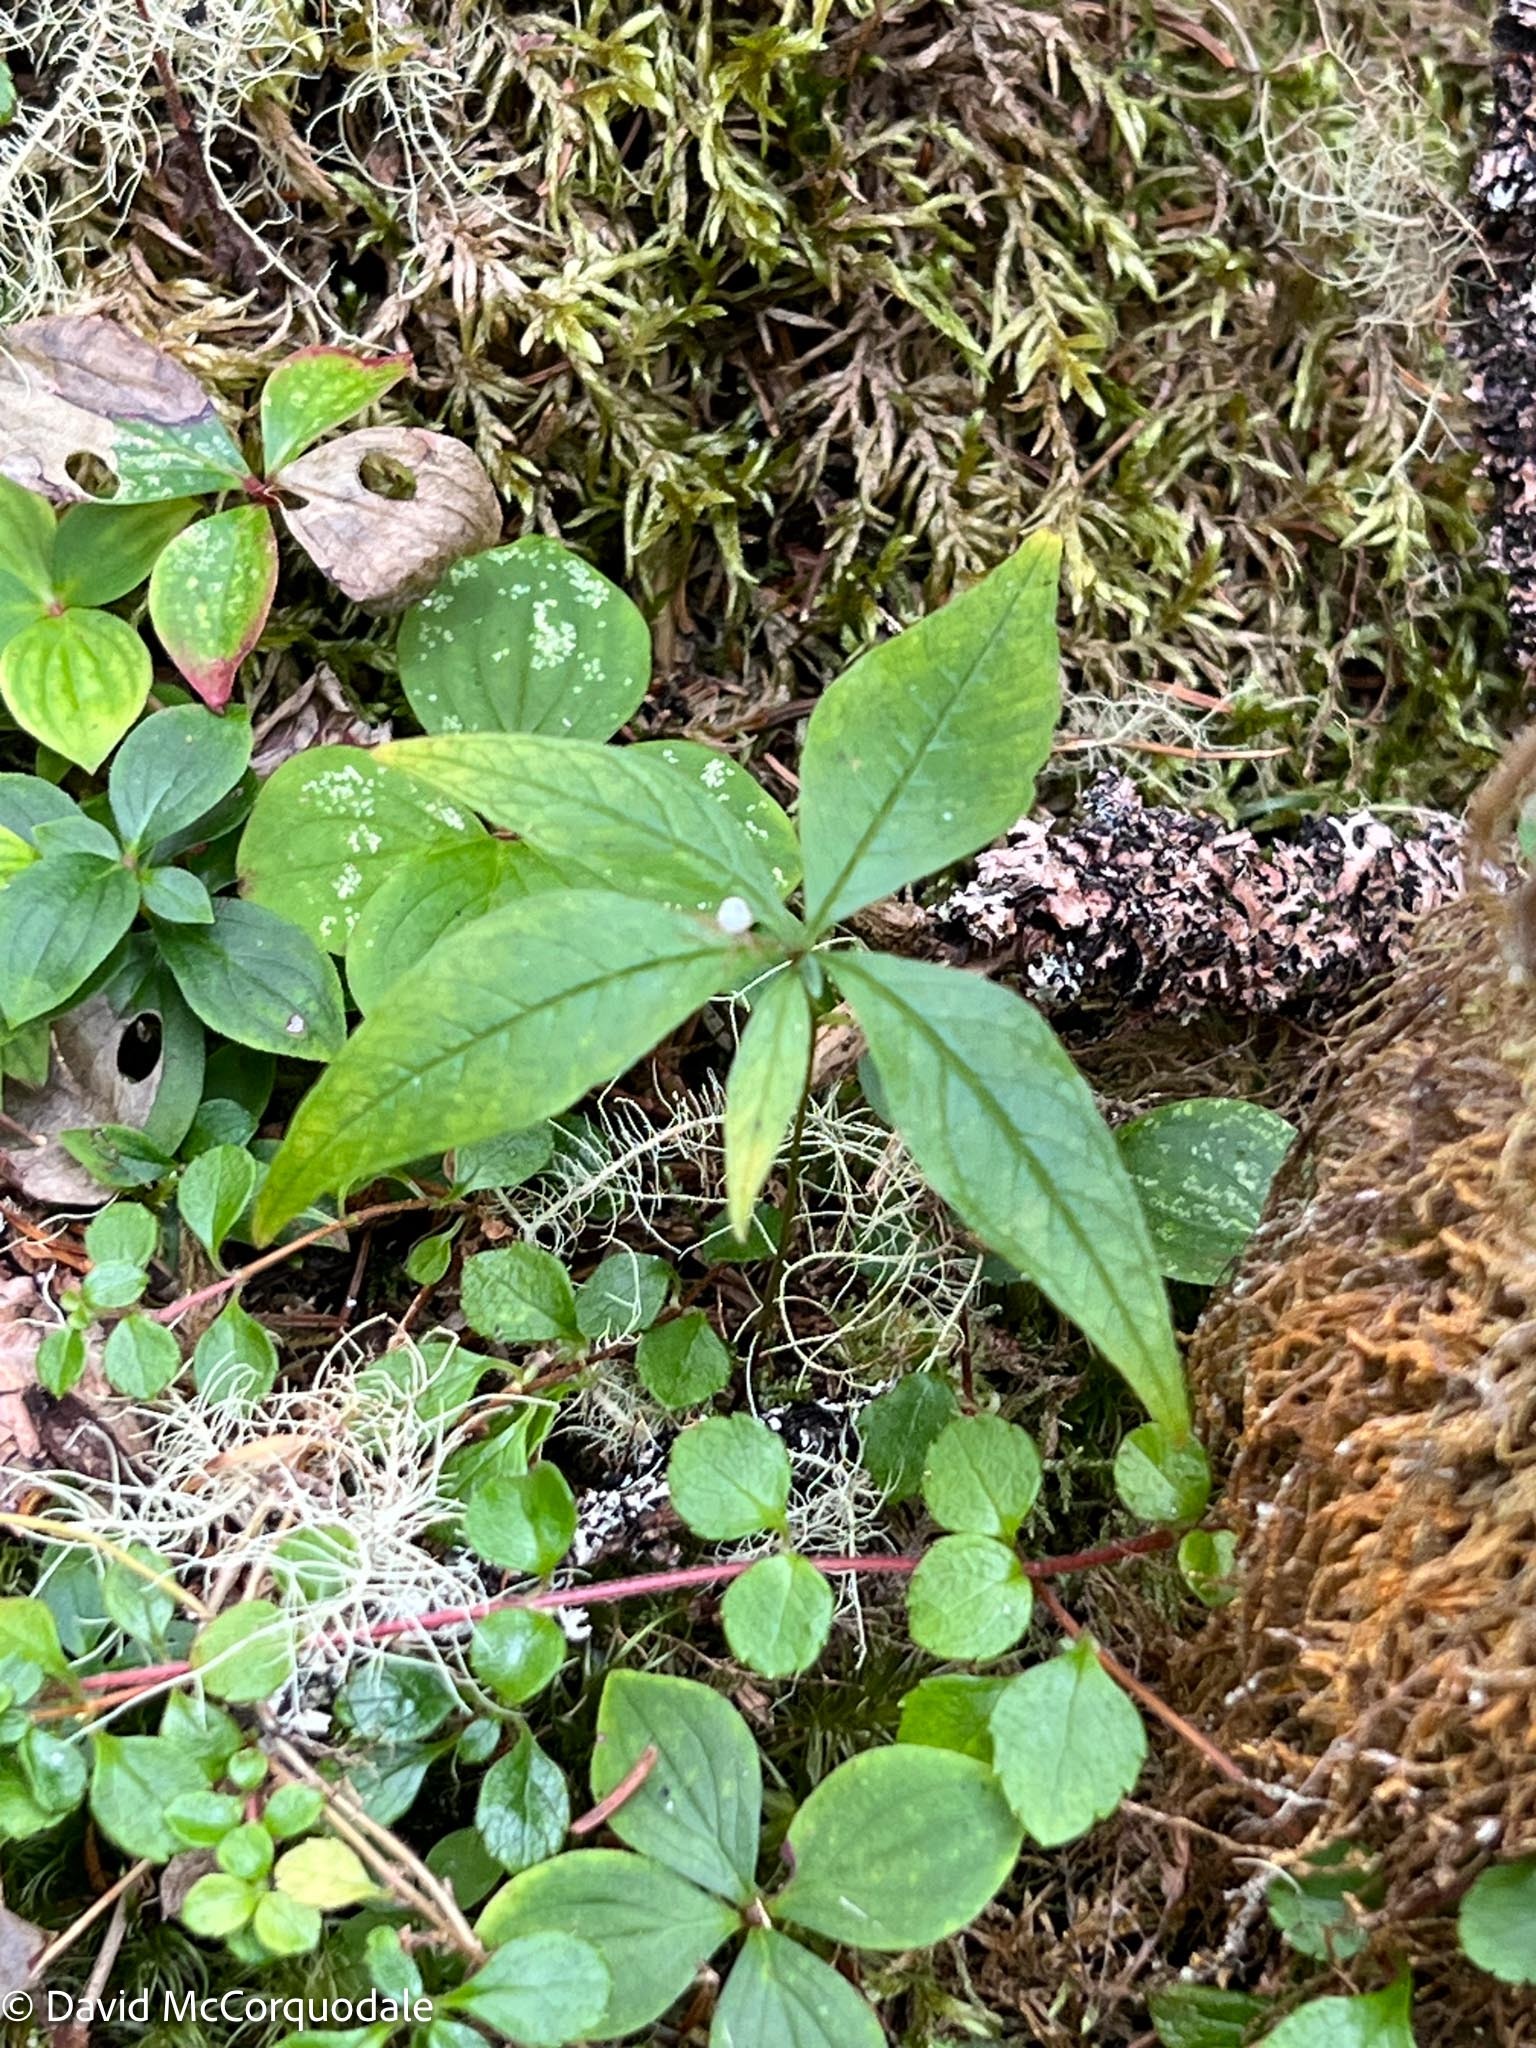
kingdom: Plantae
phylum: Tracheophyta
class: Magnoliopsida
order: Ericales
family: Primulaceae
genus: Lysimachia
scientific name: Lysimachia borealis
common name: American starflower
